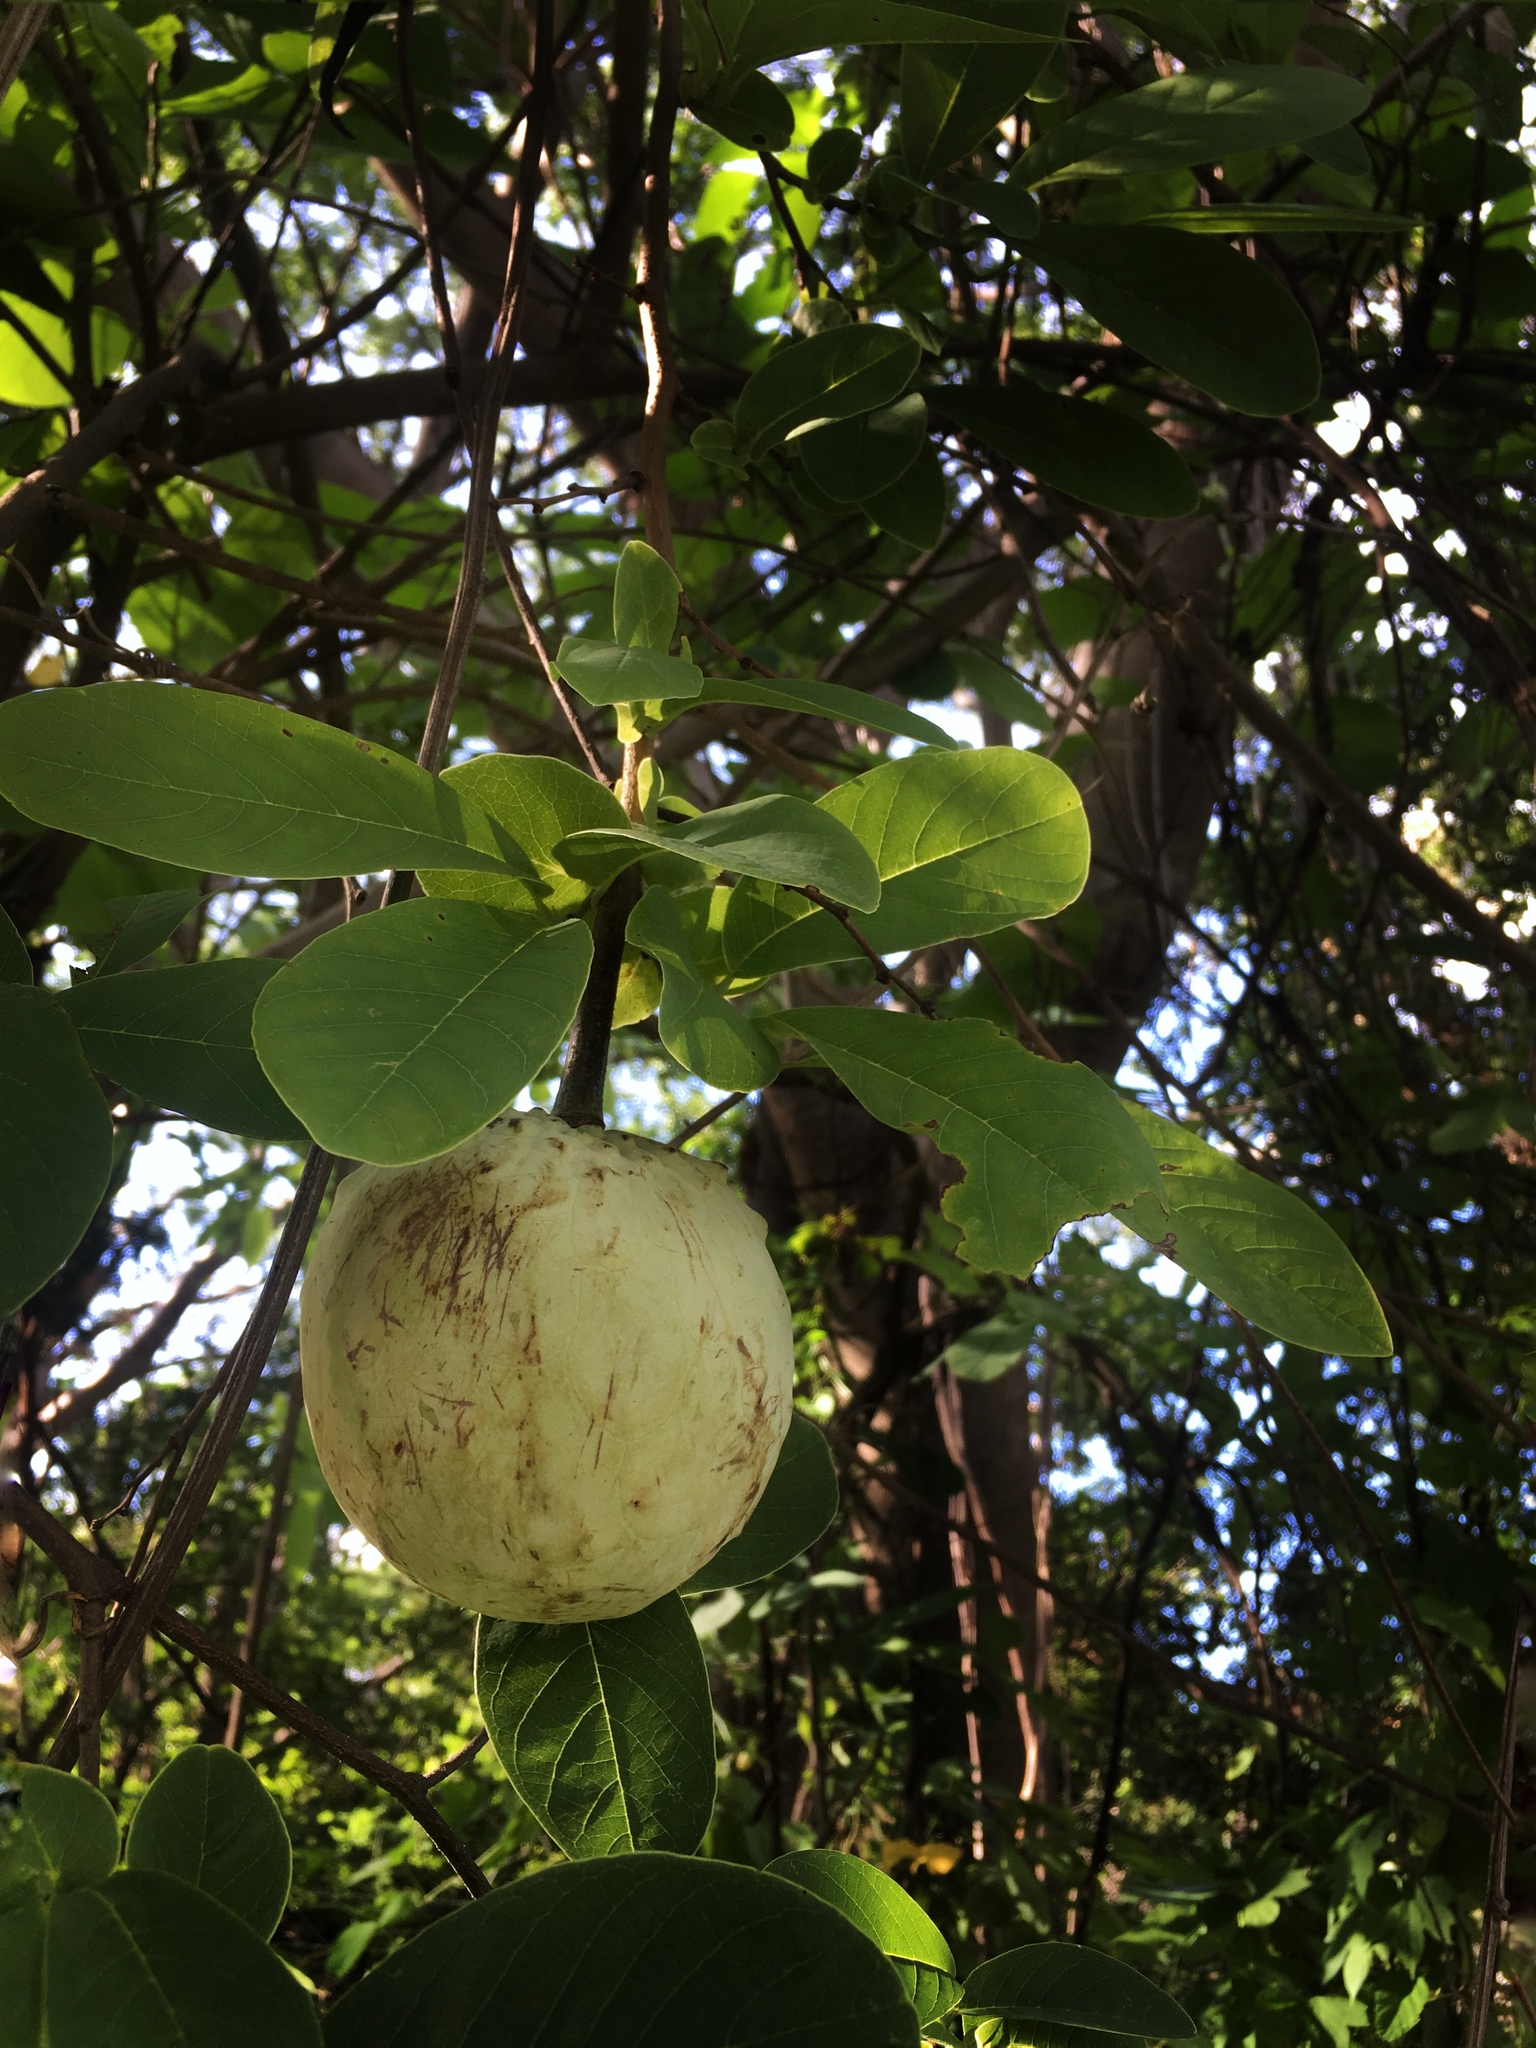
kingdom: Plantae
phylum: Tracheophyta
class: Magnoliopsida
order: Magnoliales
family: Annonaceae
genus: Annona
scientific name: Annona macroprophyllata
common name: Ilama
